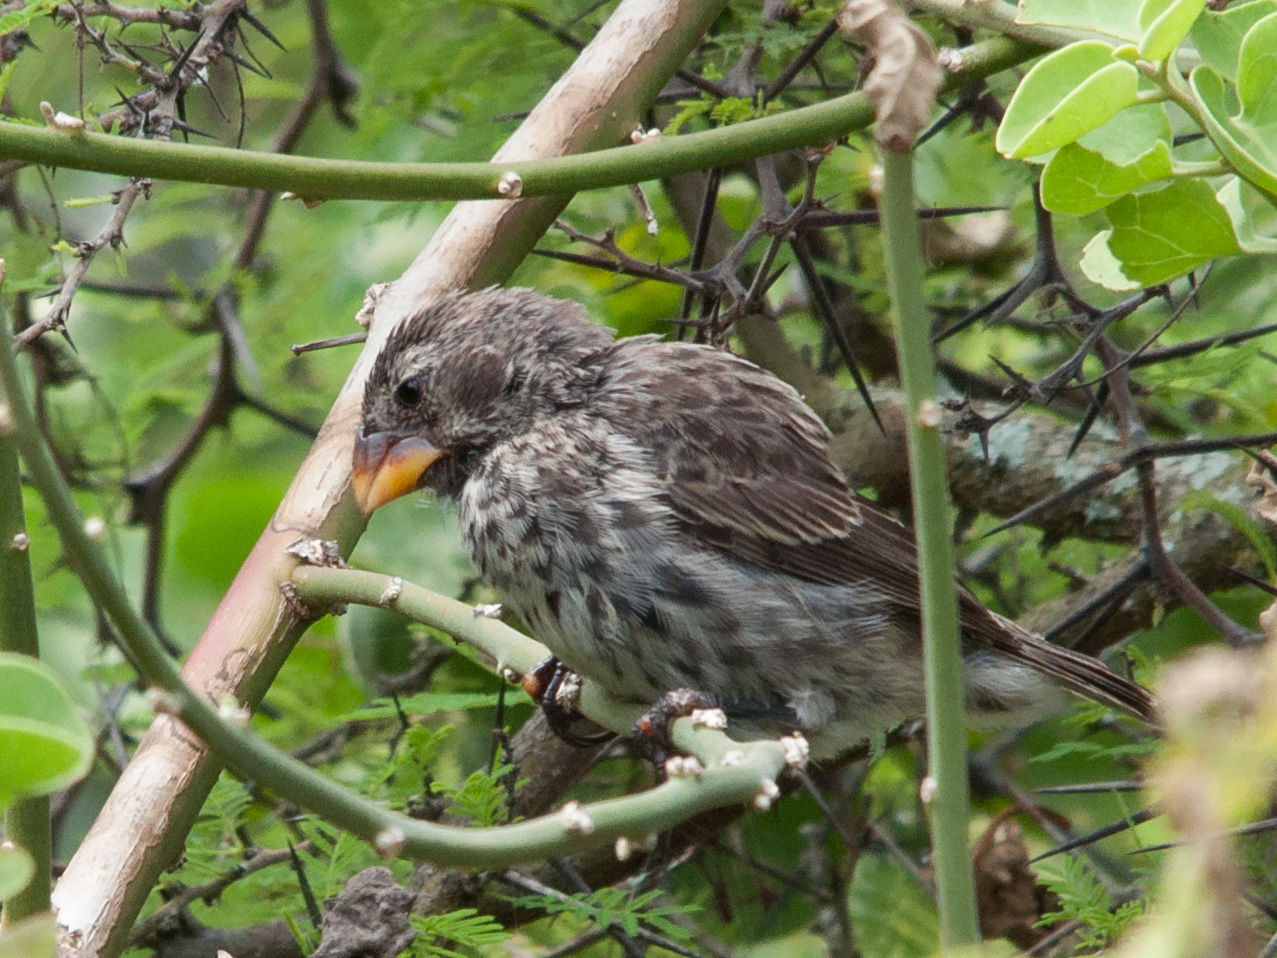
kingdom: Animalia
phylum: Chordata
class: Aves
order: Passeriformes
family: Thraupidae
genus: Geospiza
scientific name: Geospiza fortis
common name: Medium ground finch
